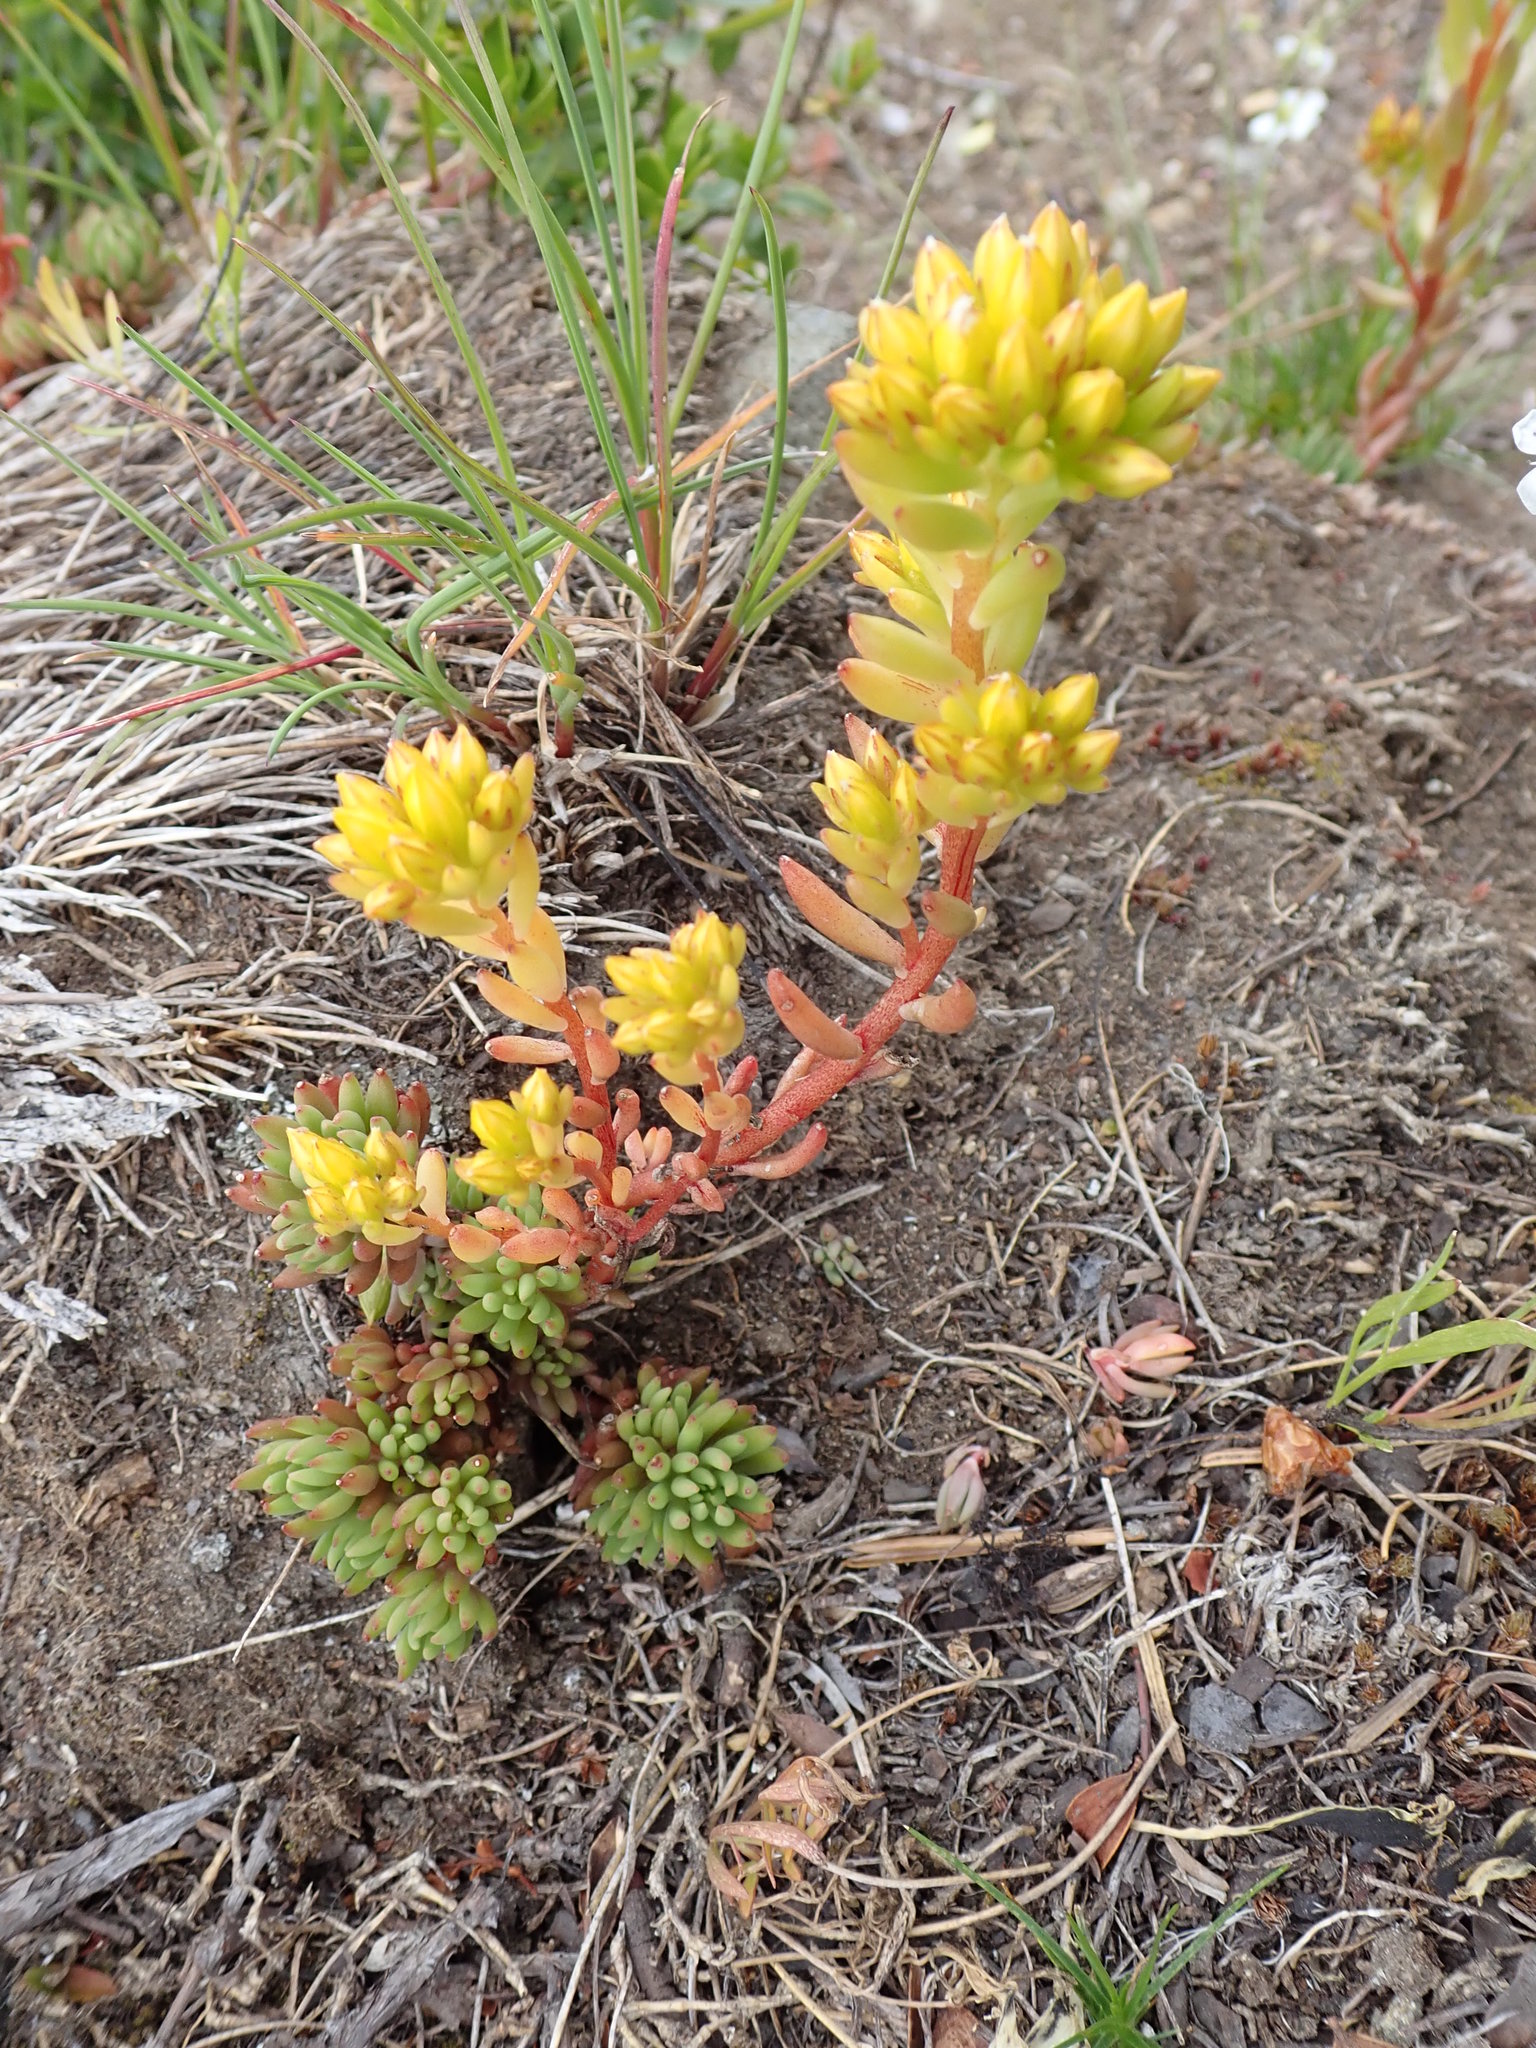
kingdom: Plantae
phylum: Tracheophyta
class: Magnoliopsida
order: Saxifragales
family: Crassulaceae
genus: Sedum
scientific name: Sedum lanceolatum
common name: Common stonecrop
